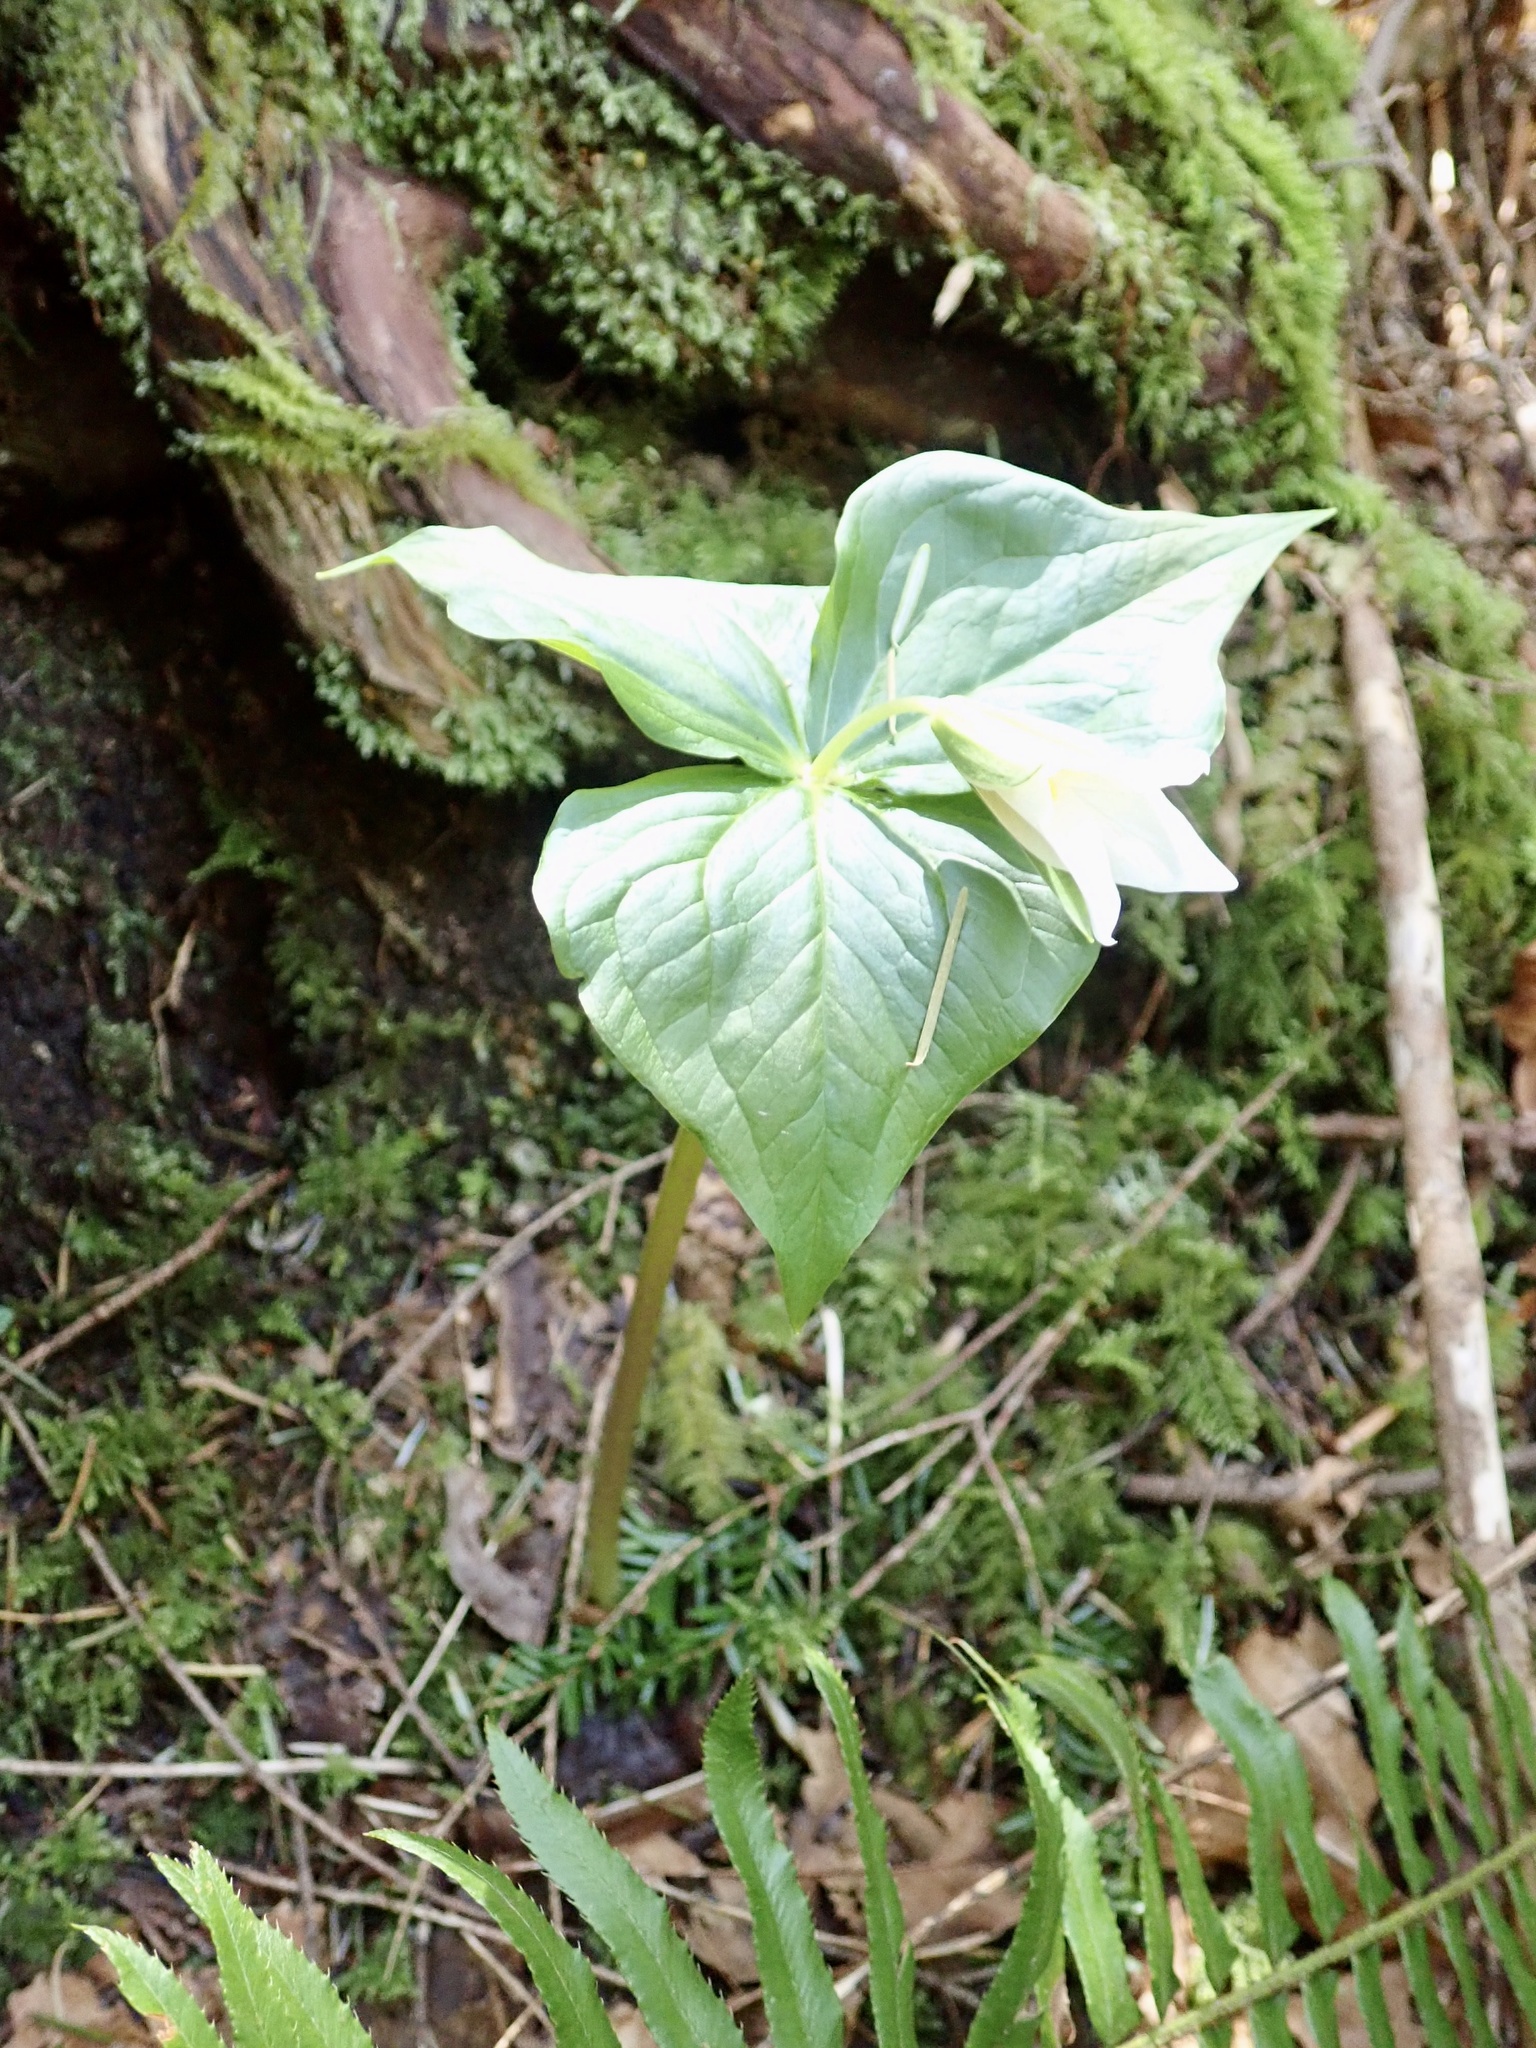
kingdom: Plantae
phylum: Tracheophyta
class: Liliopsida
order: Liliales
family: Melanthiaceae
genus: Trillium
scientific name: Trillium ovatum
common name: Pacific trillium
